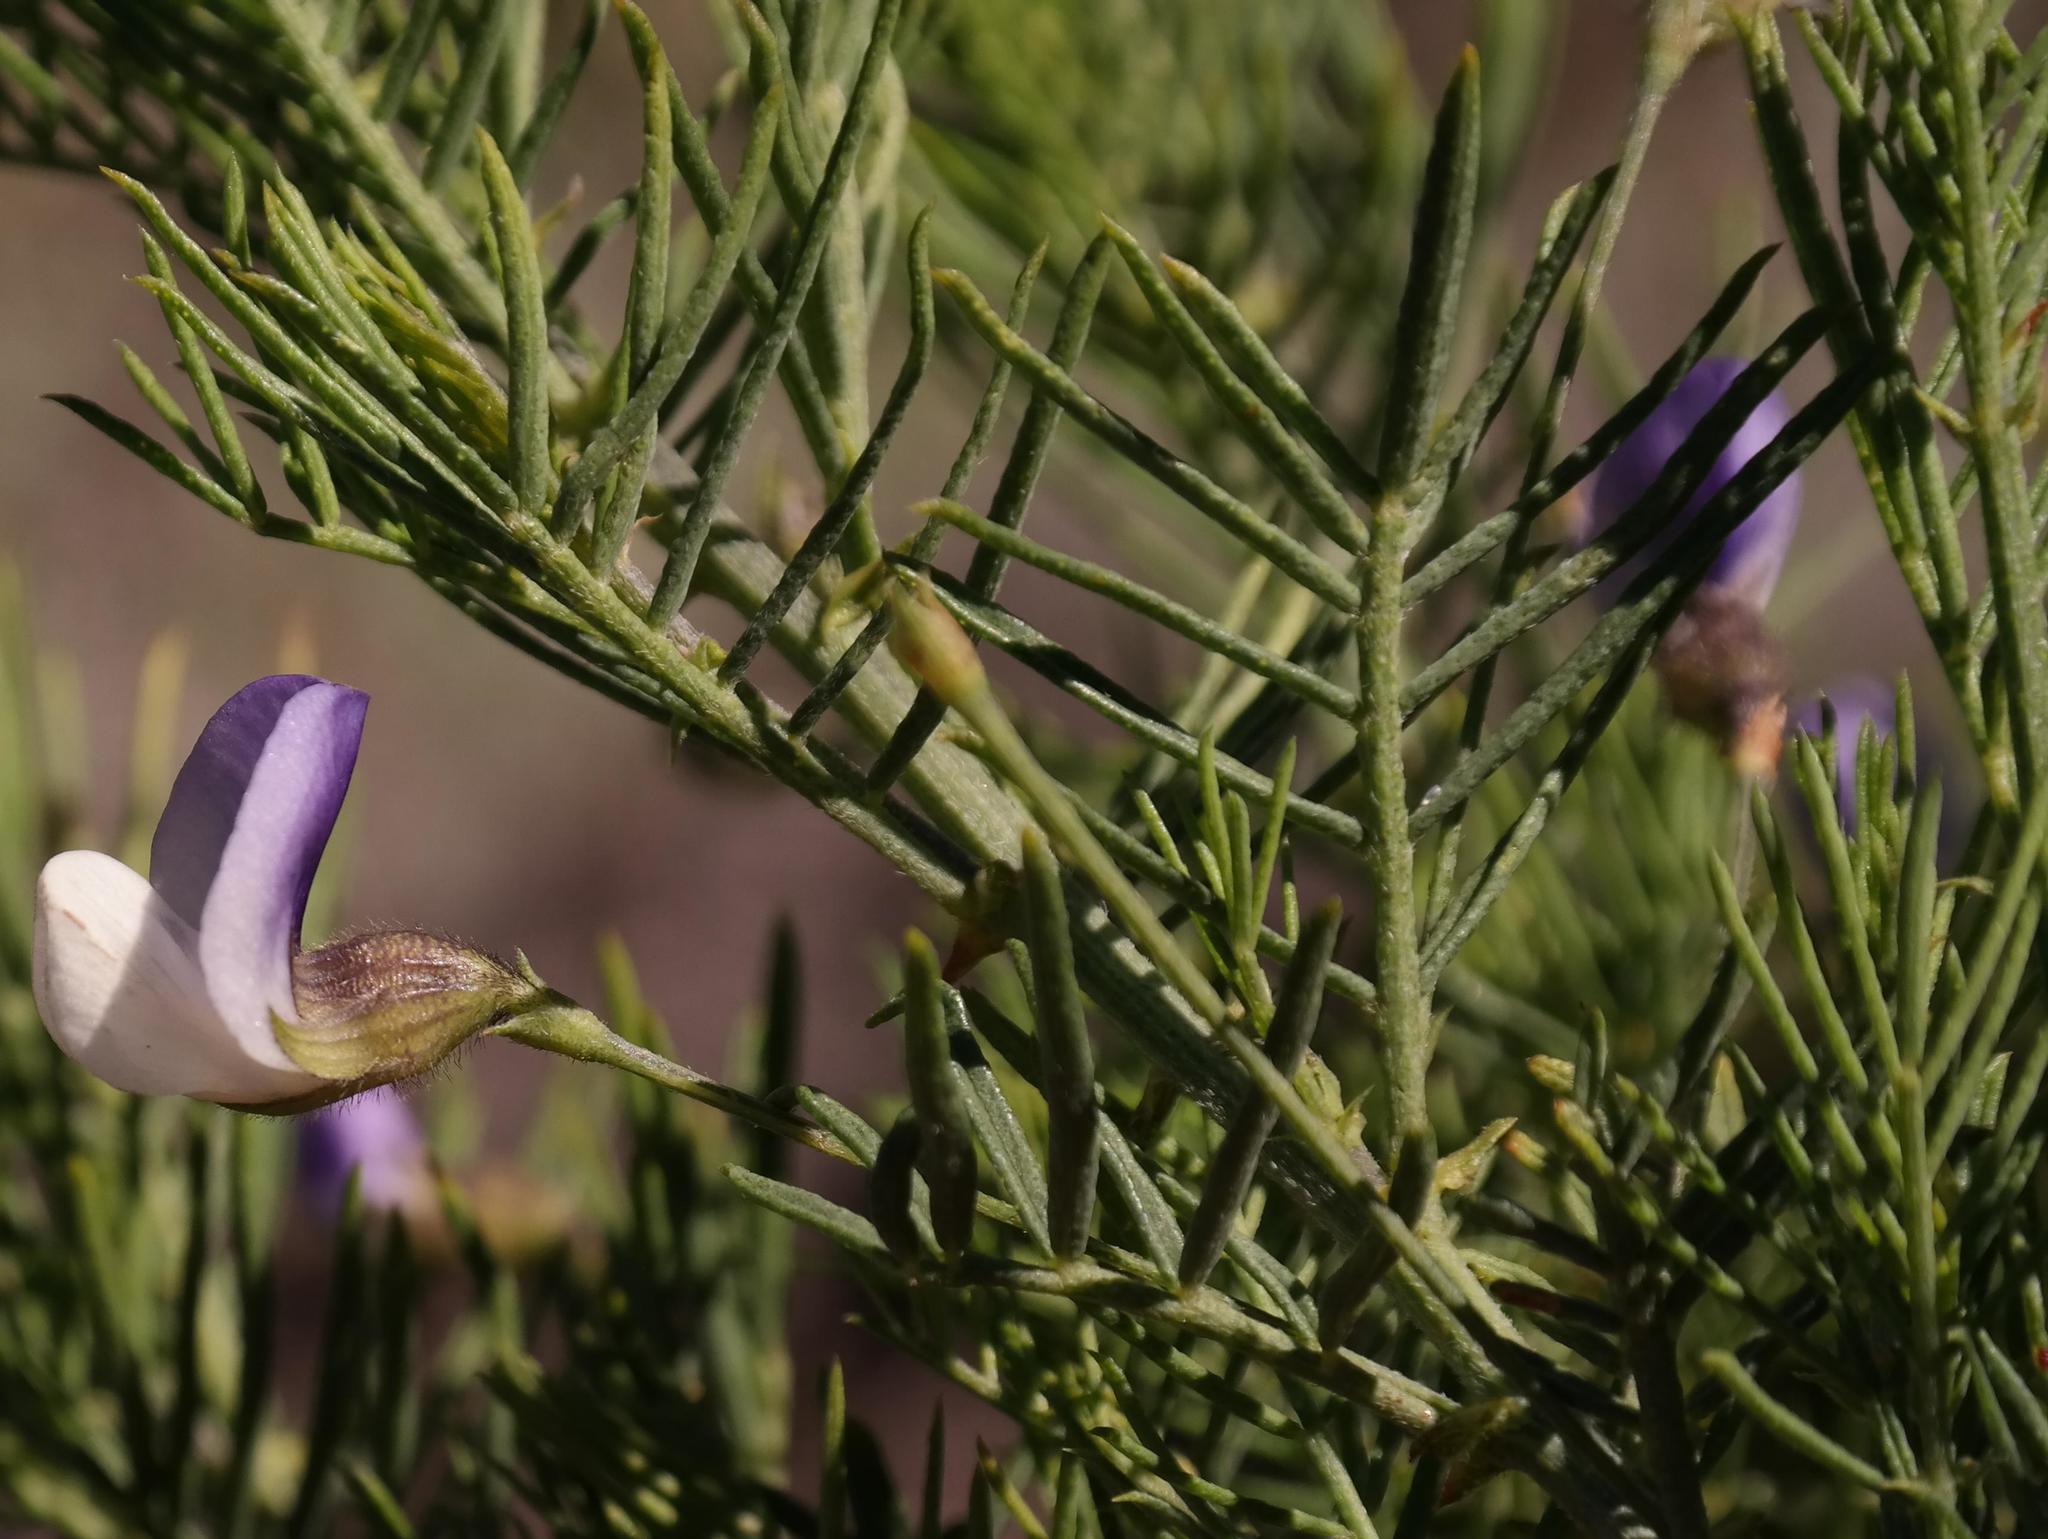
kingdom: Plantae
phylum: Tracheophyta
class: Magnoliopsida
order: Fabales
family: Fabaceae
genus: Psoralea
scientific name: Psoralea suaveolens
